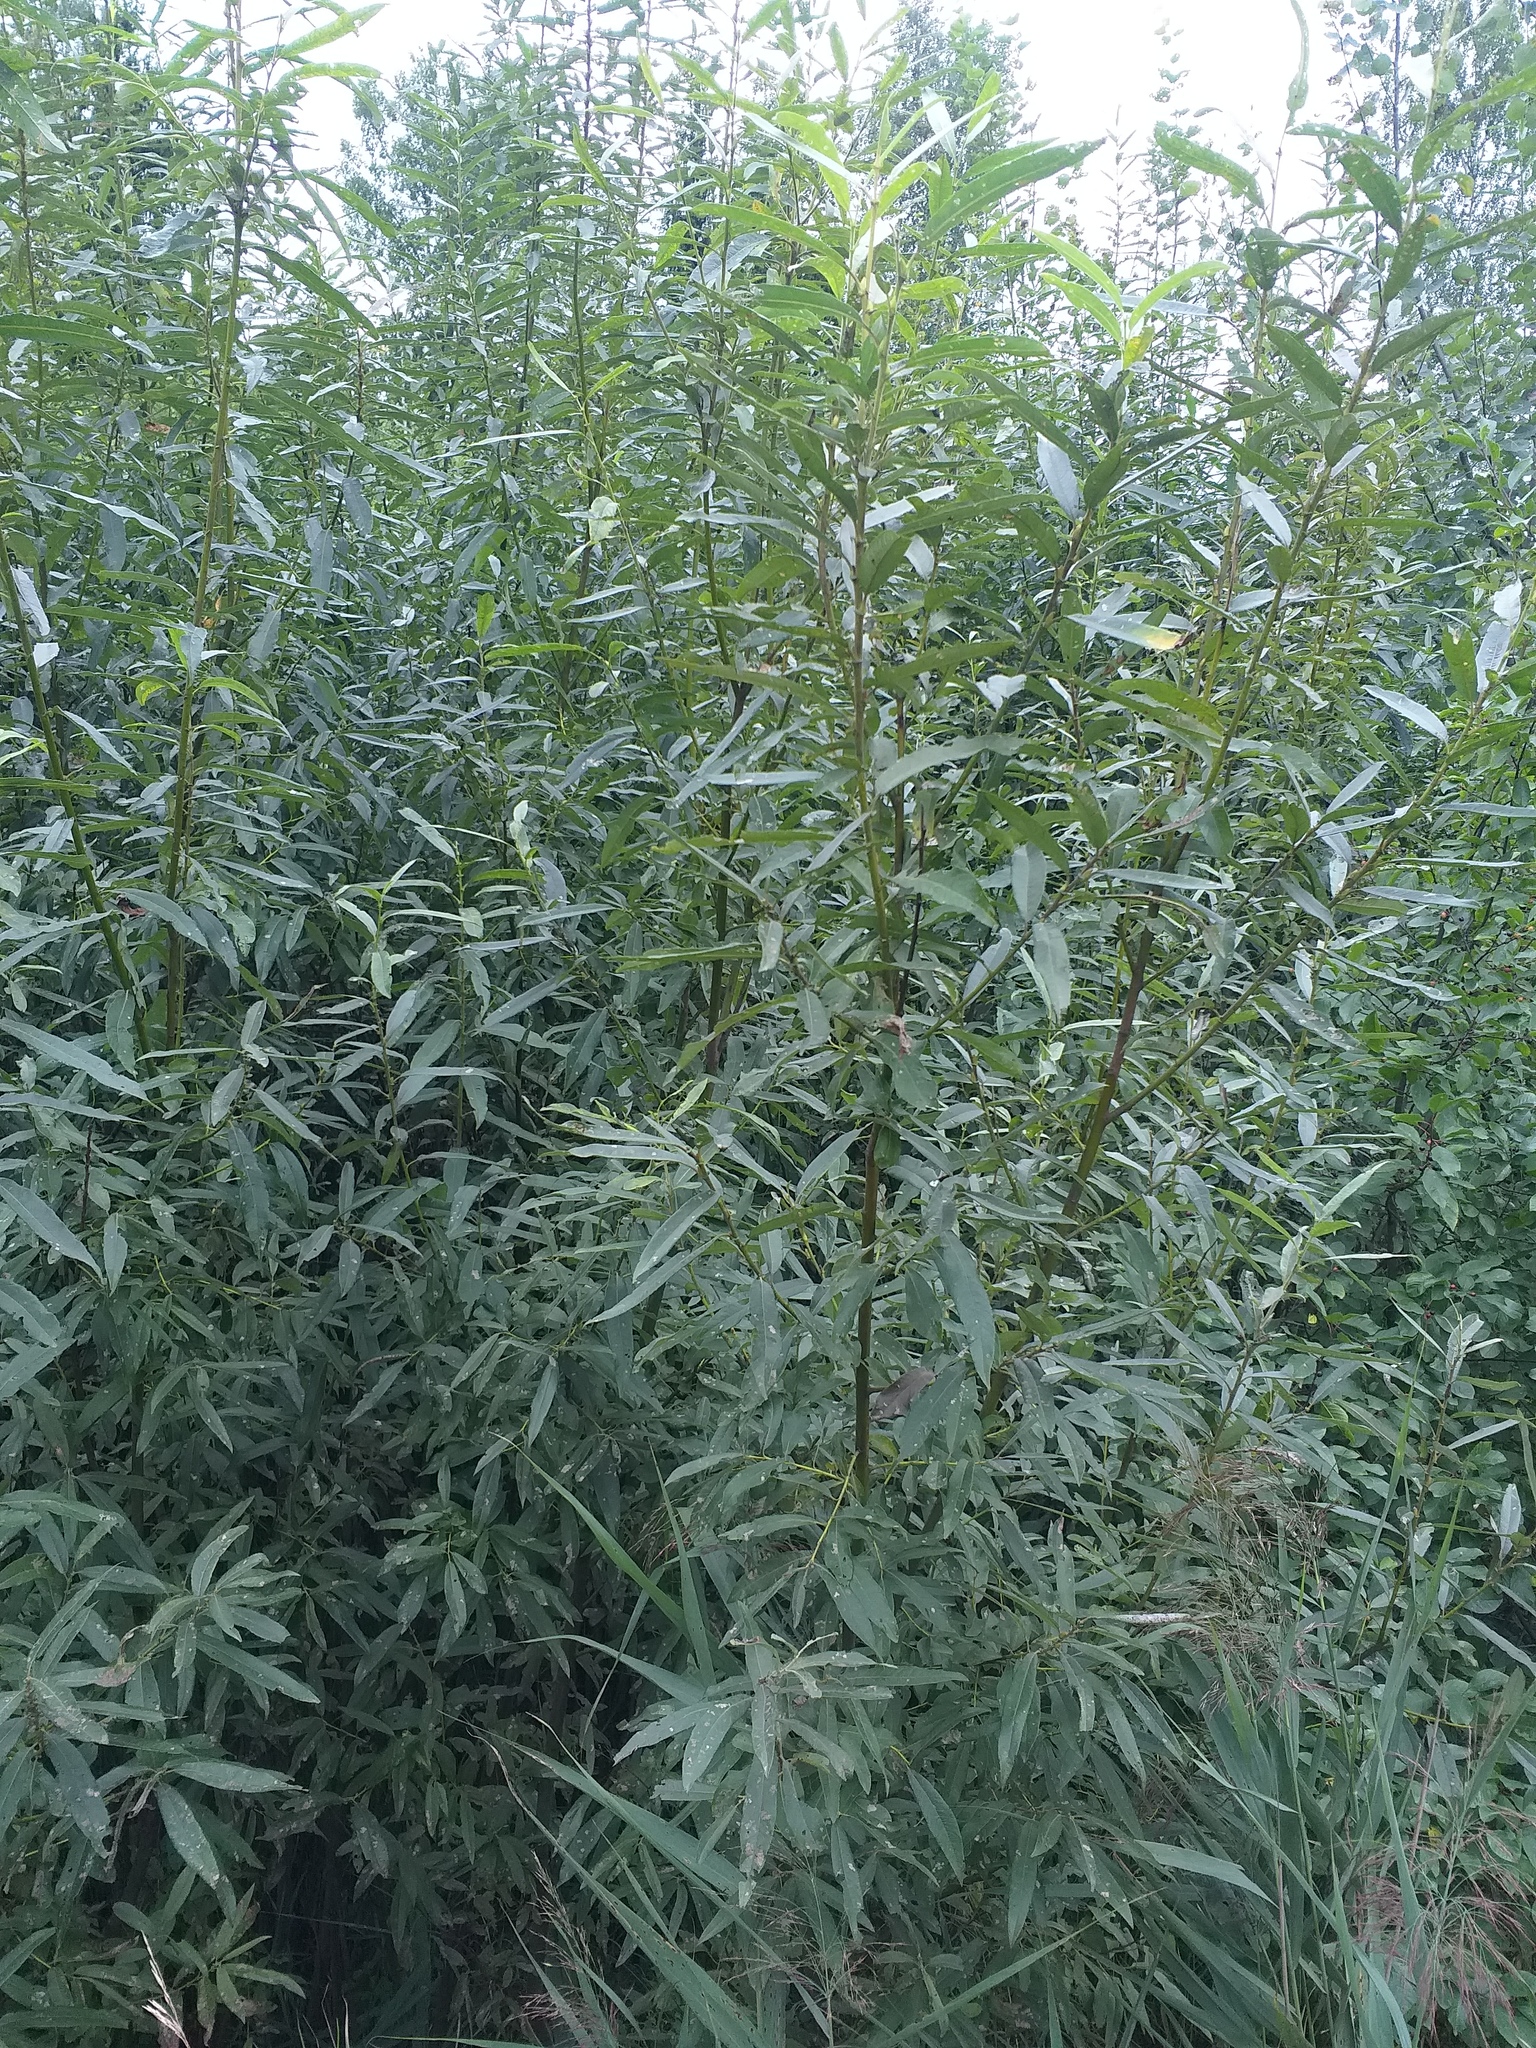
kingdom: Plantae
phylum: Tracheophyta
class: Magnoliopsida
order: Malpighiales
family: Salicaceae
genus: Salix
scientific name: Salix gmelinii
